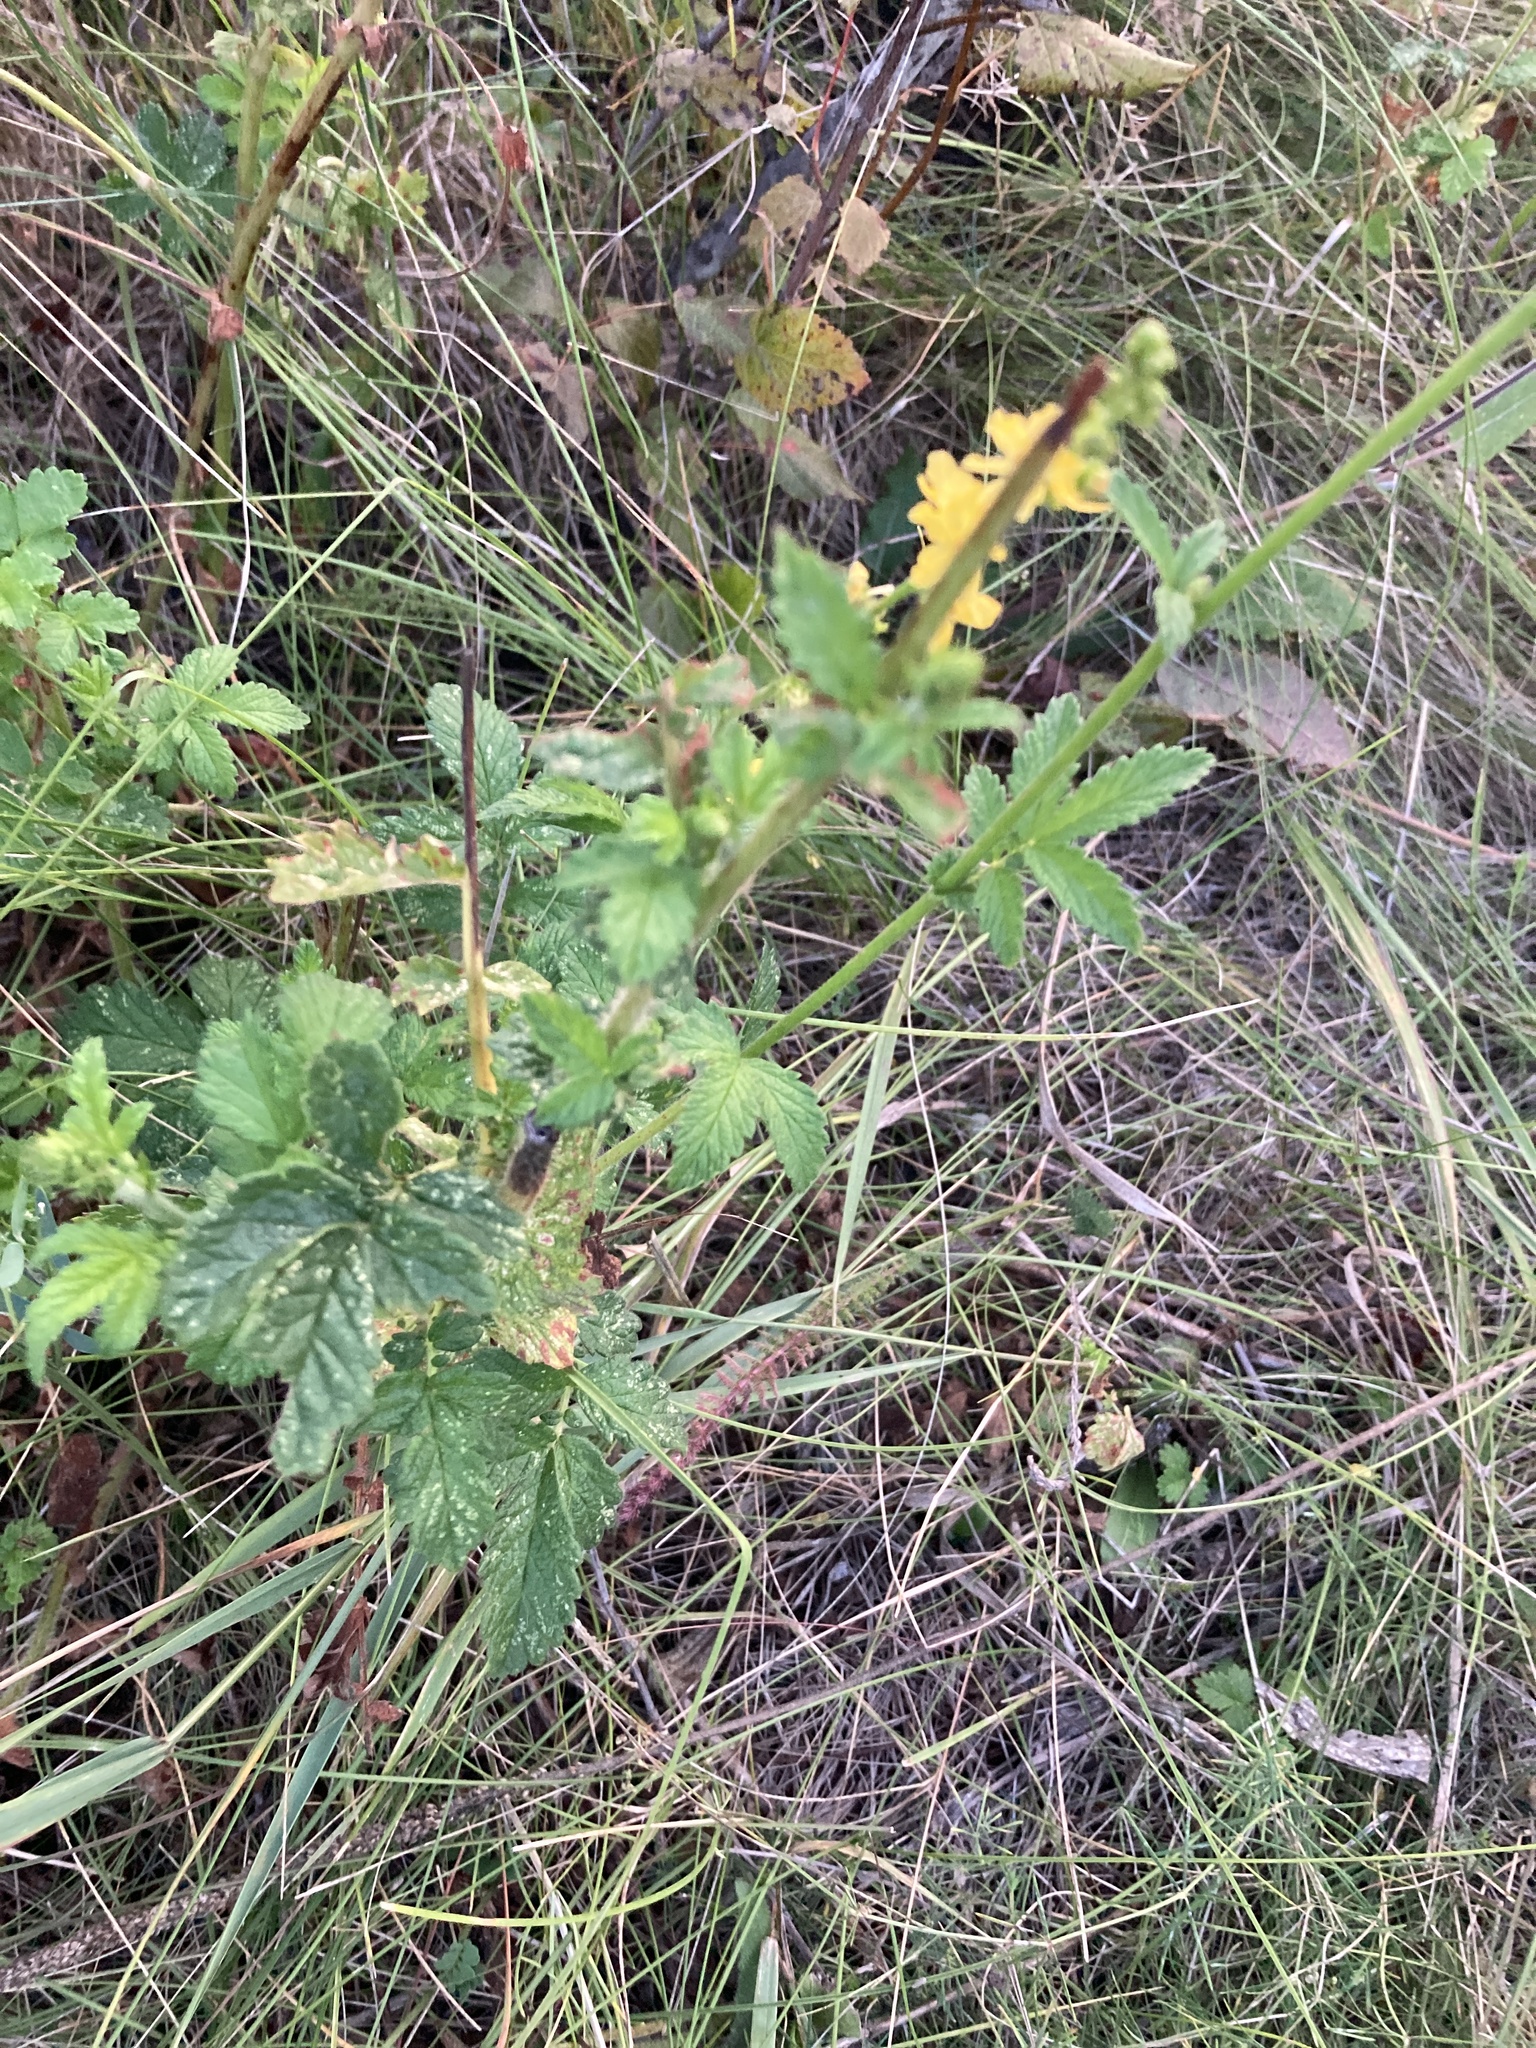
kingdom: Plantae
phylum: Tracheophyta
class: Magnoliopsida
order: Rosales
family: Rosaceae
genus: Agrimonia
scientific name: Agrimonia eupatoria
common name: Agrimony
